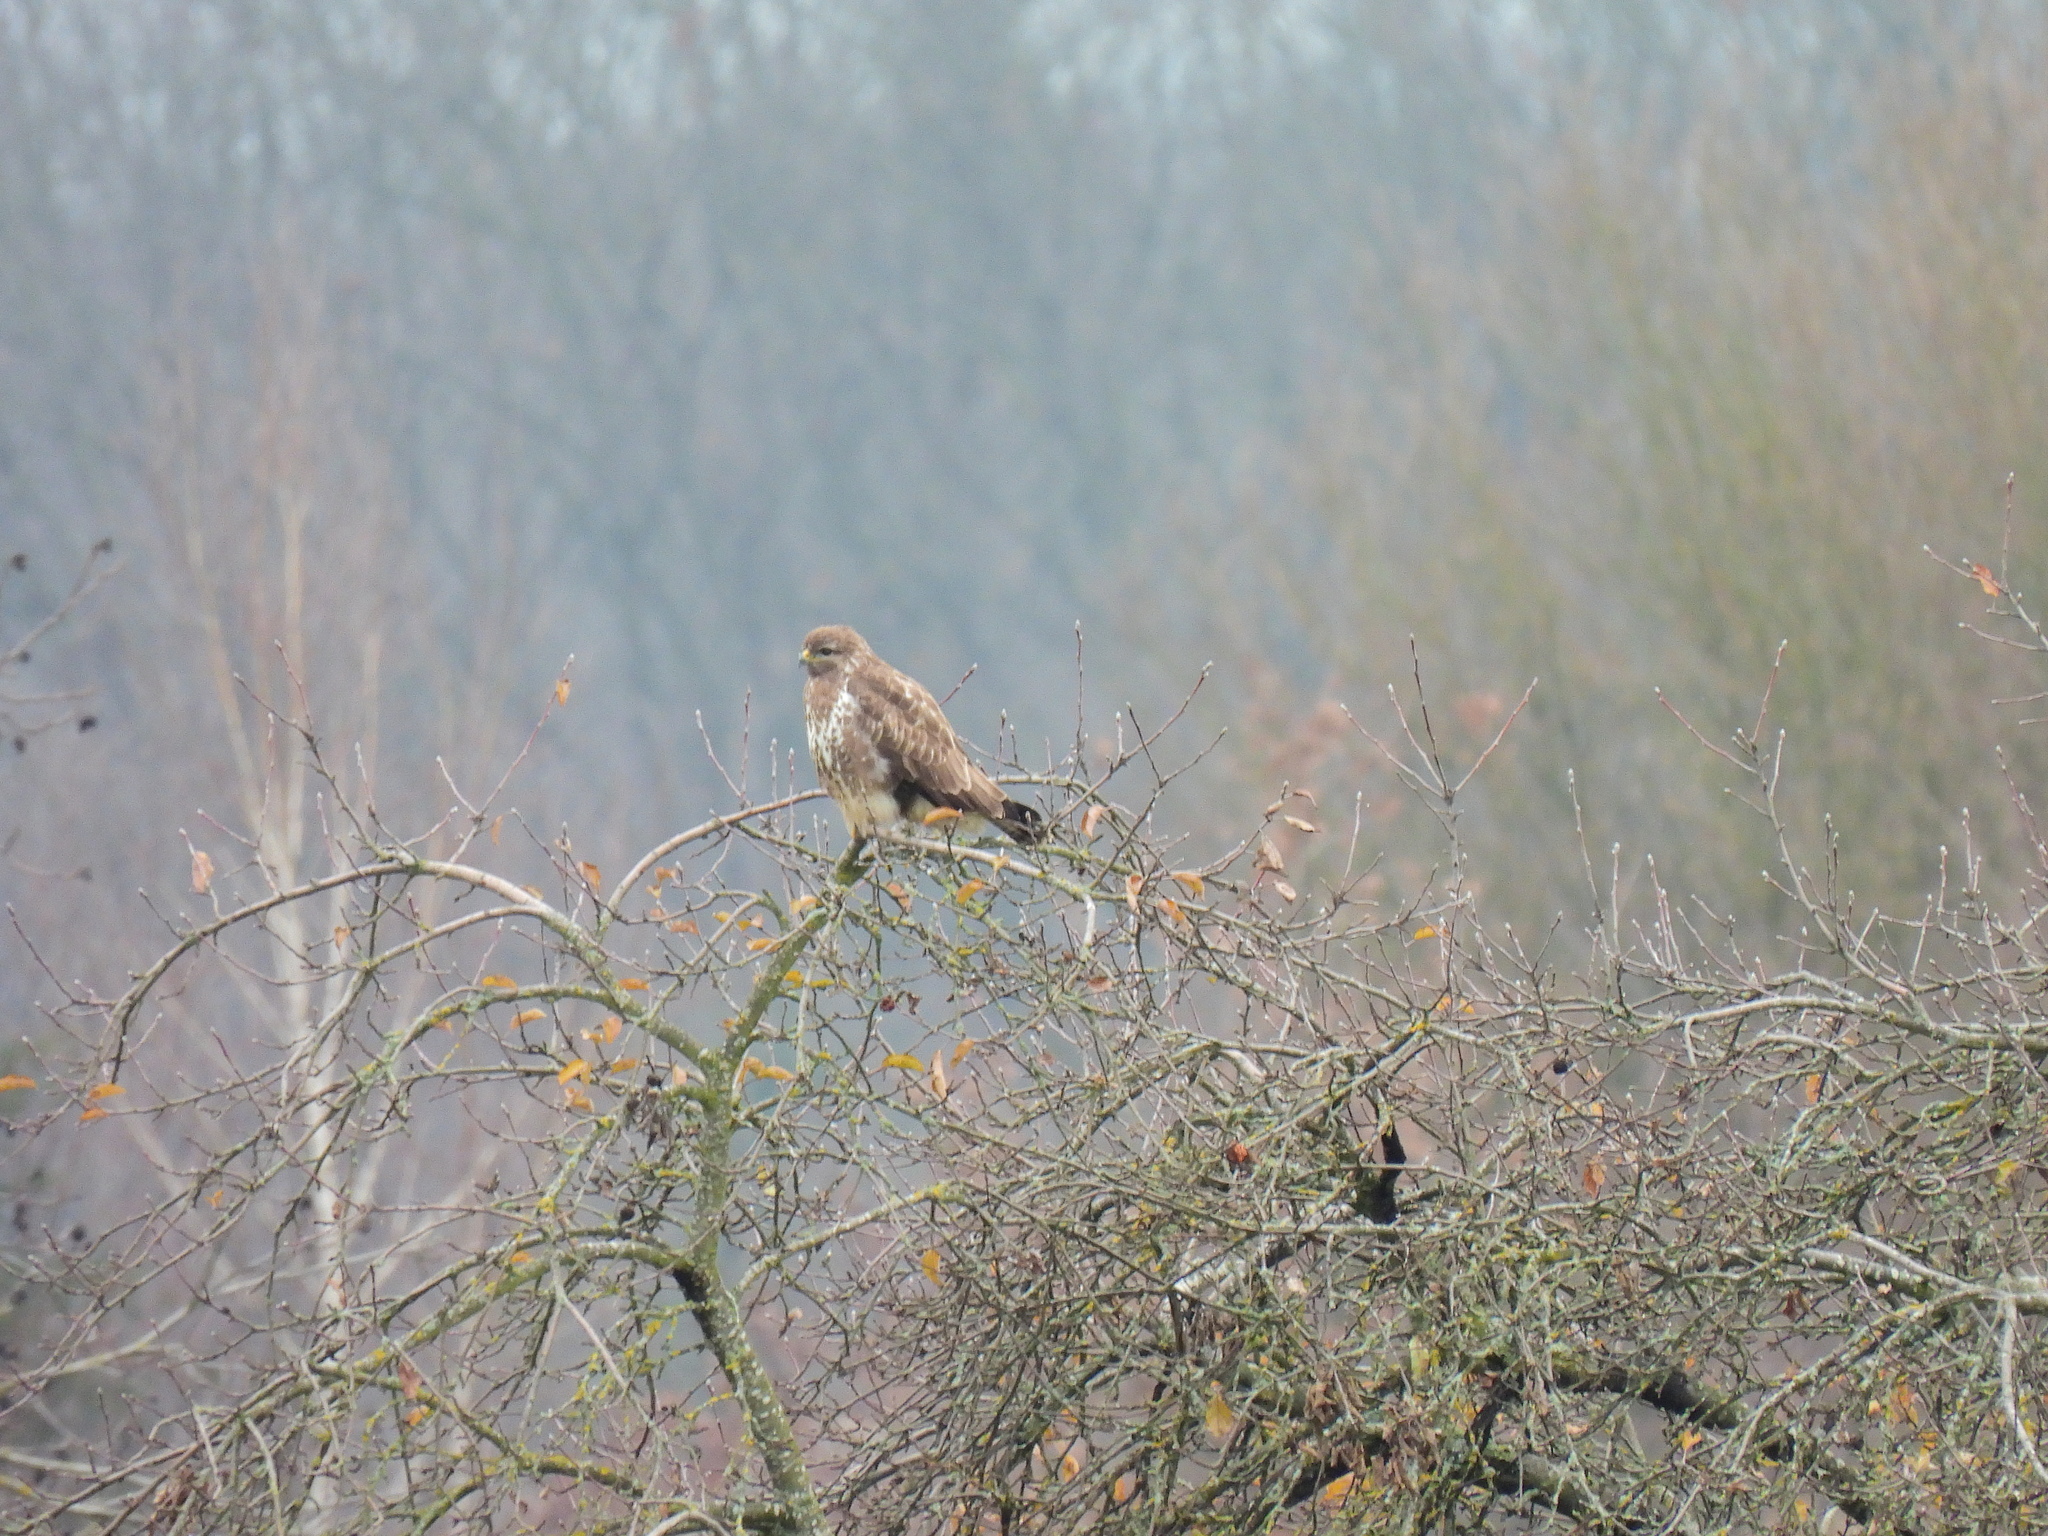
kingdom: Animalia
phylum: Chordata
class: Aves
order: Accipitriformes
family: Accipitridae
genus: Buteo
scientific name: Buteo buteo
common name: Common buzzard
